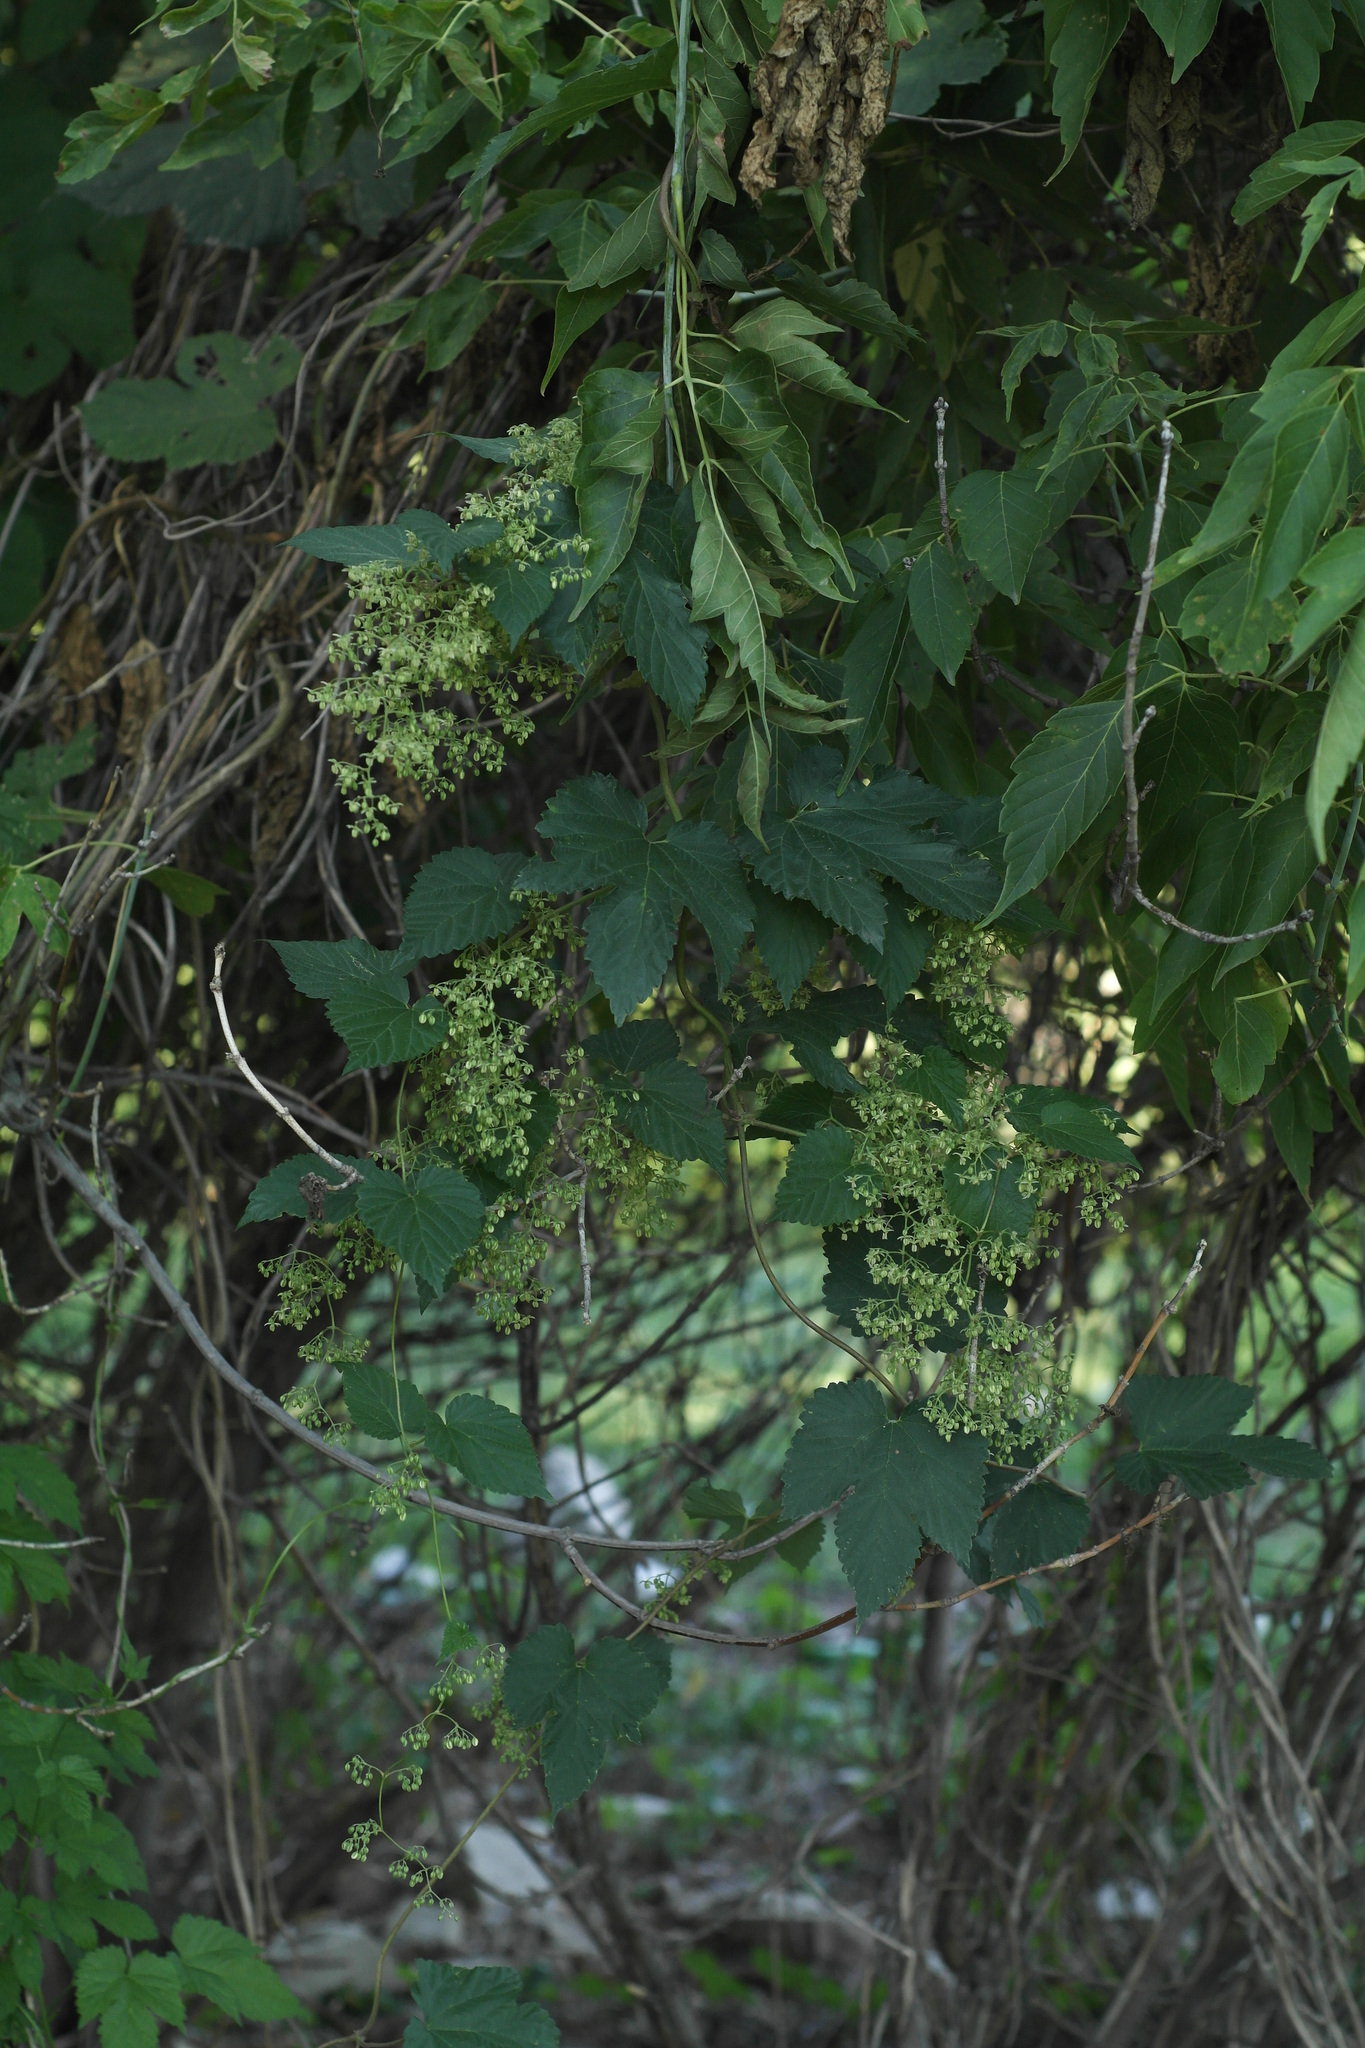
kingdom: Plantae
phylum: Tracheophyta
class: Magnoliopsida
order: Rosales
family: Cannabaceae
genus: Humulus
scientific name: Humulus lupulus
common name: Hop
